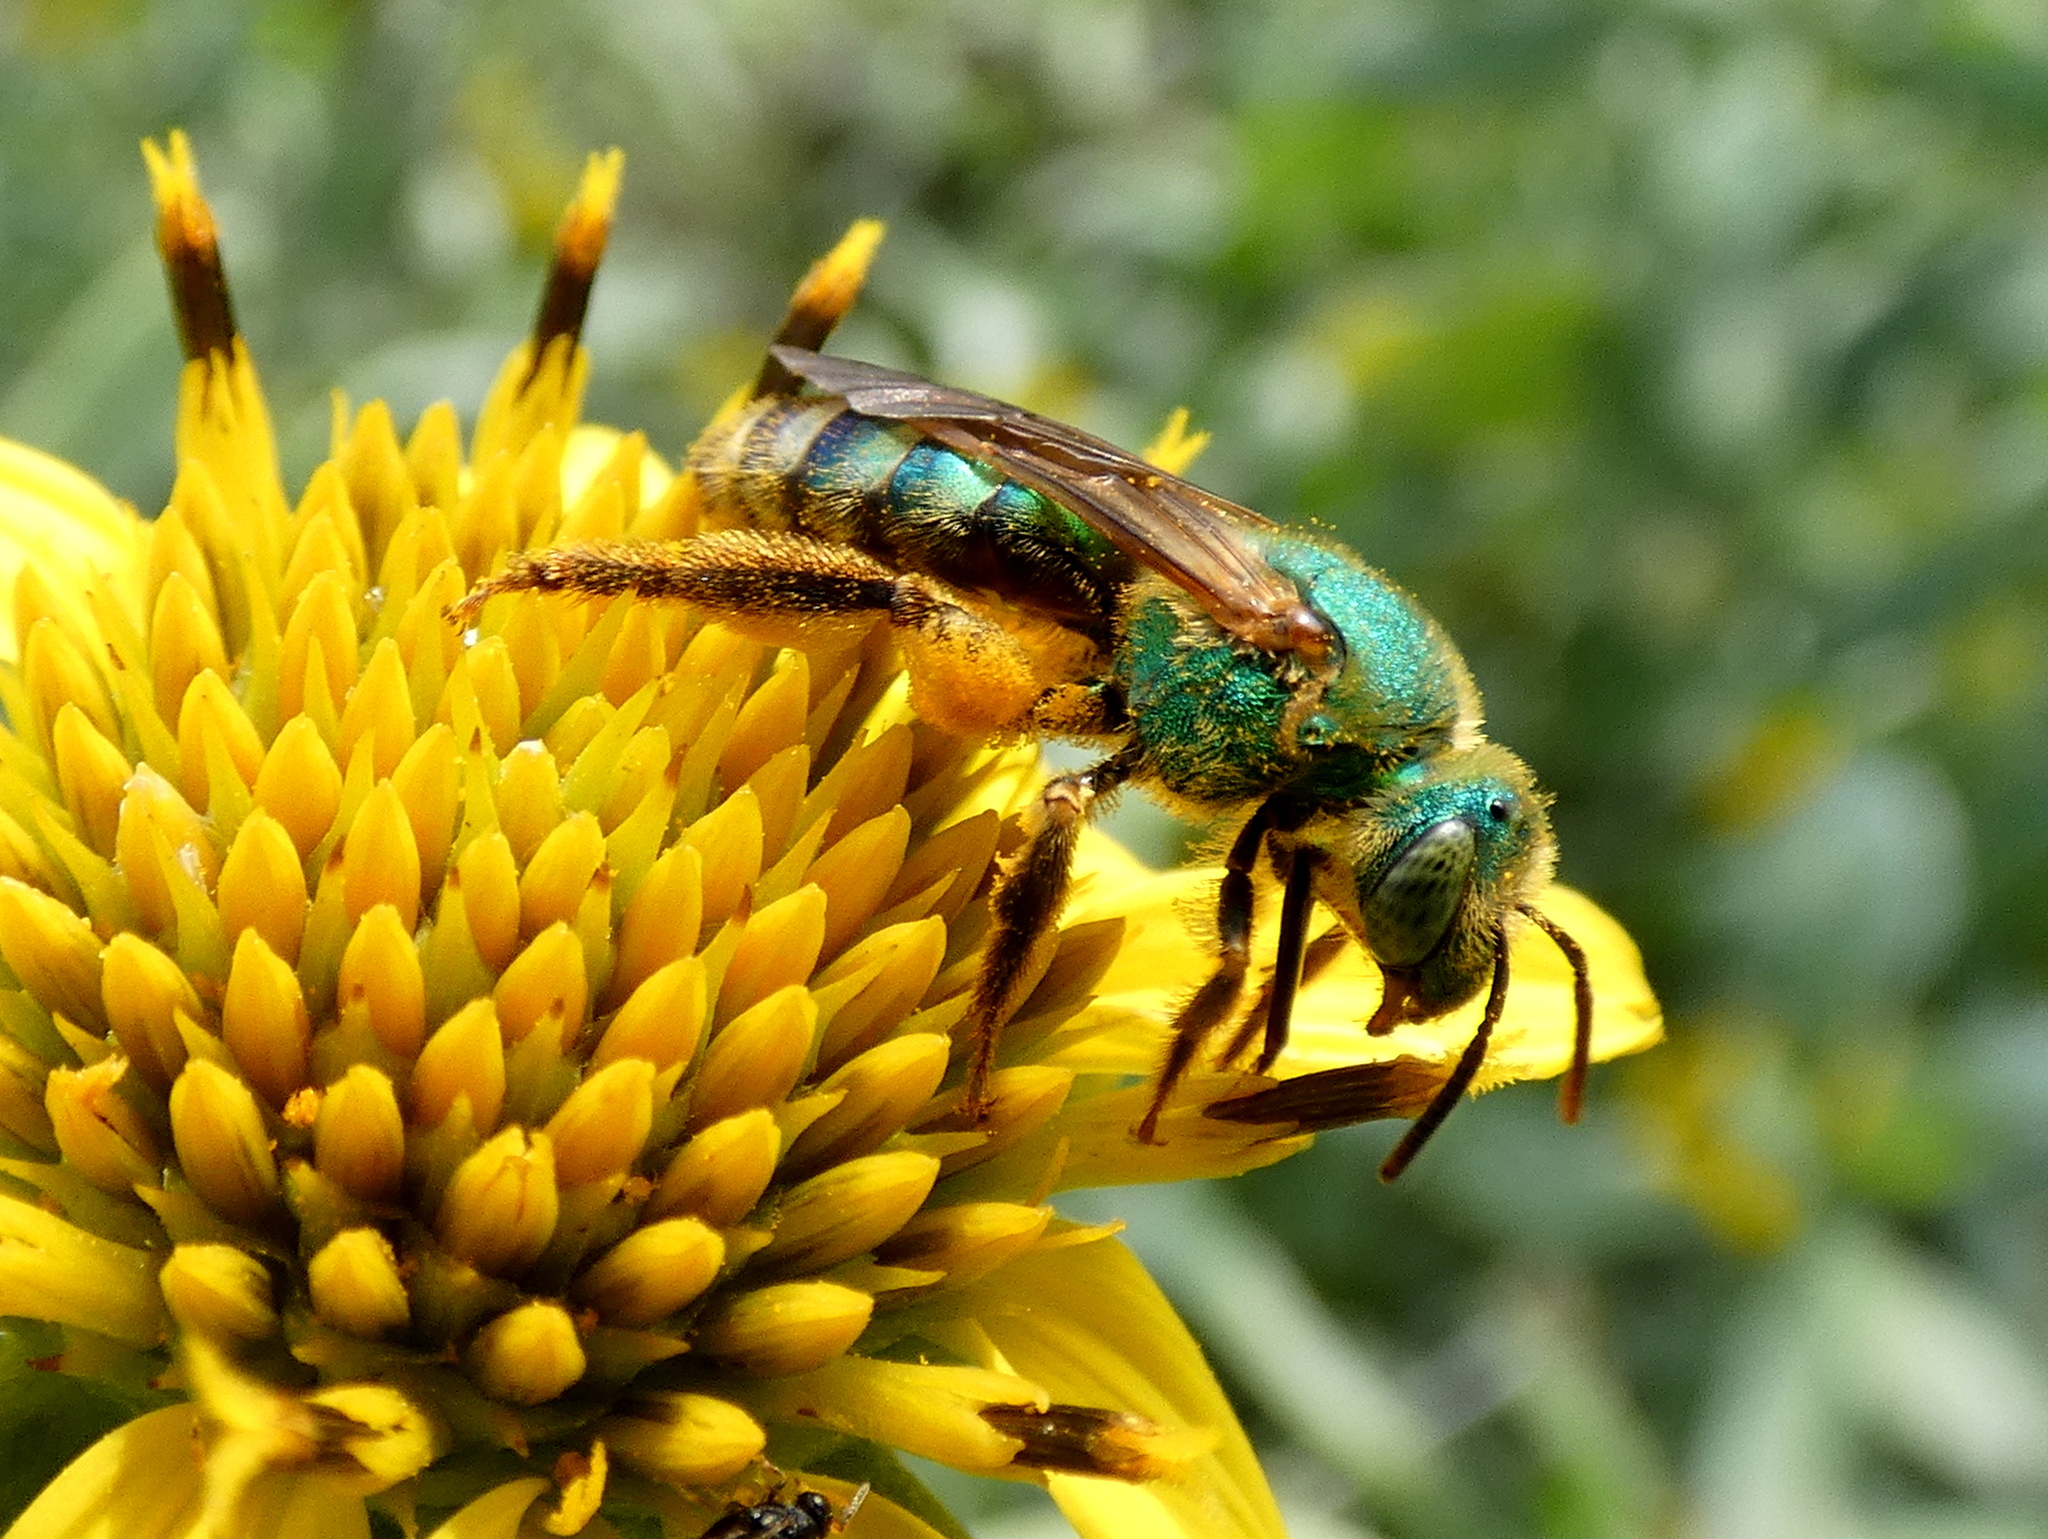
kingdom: Animalia
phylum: Arthropoda
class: Insecta
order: Hymenoptera
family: Halictidae
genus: Agapostemon
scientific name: Agapostemon splendens
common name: Brown-winged striped sweat bee
